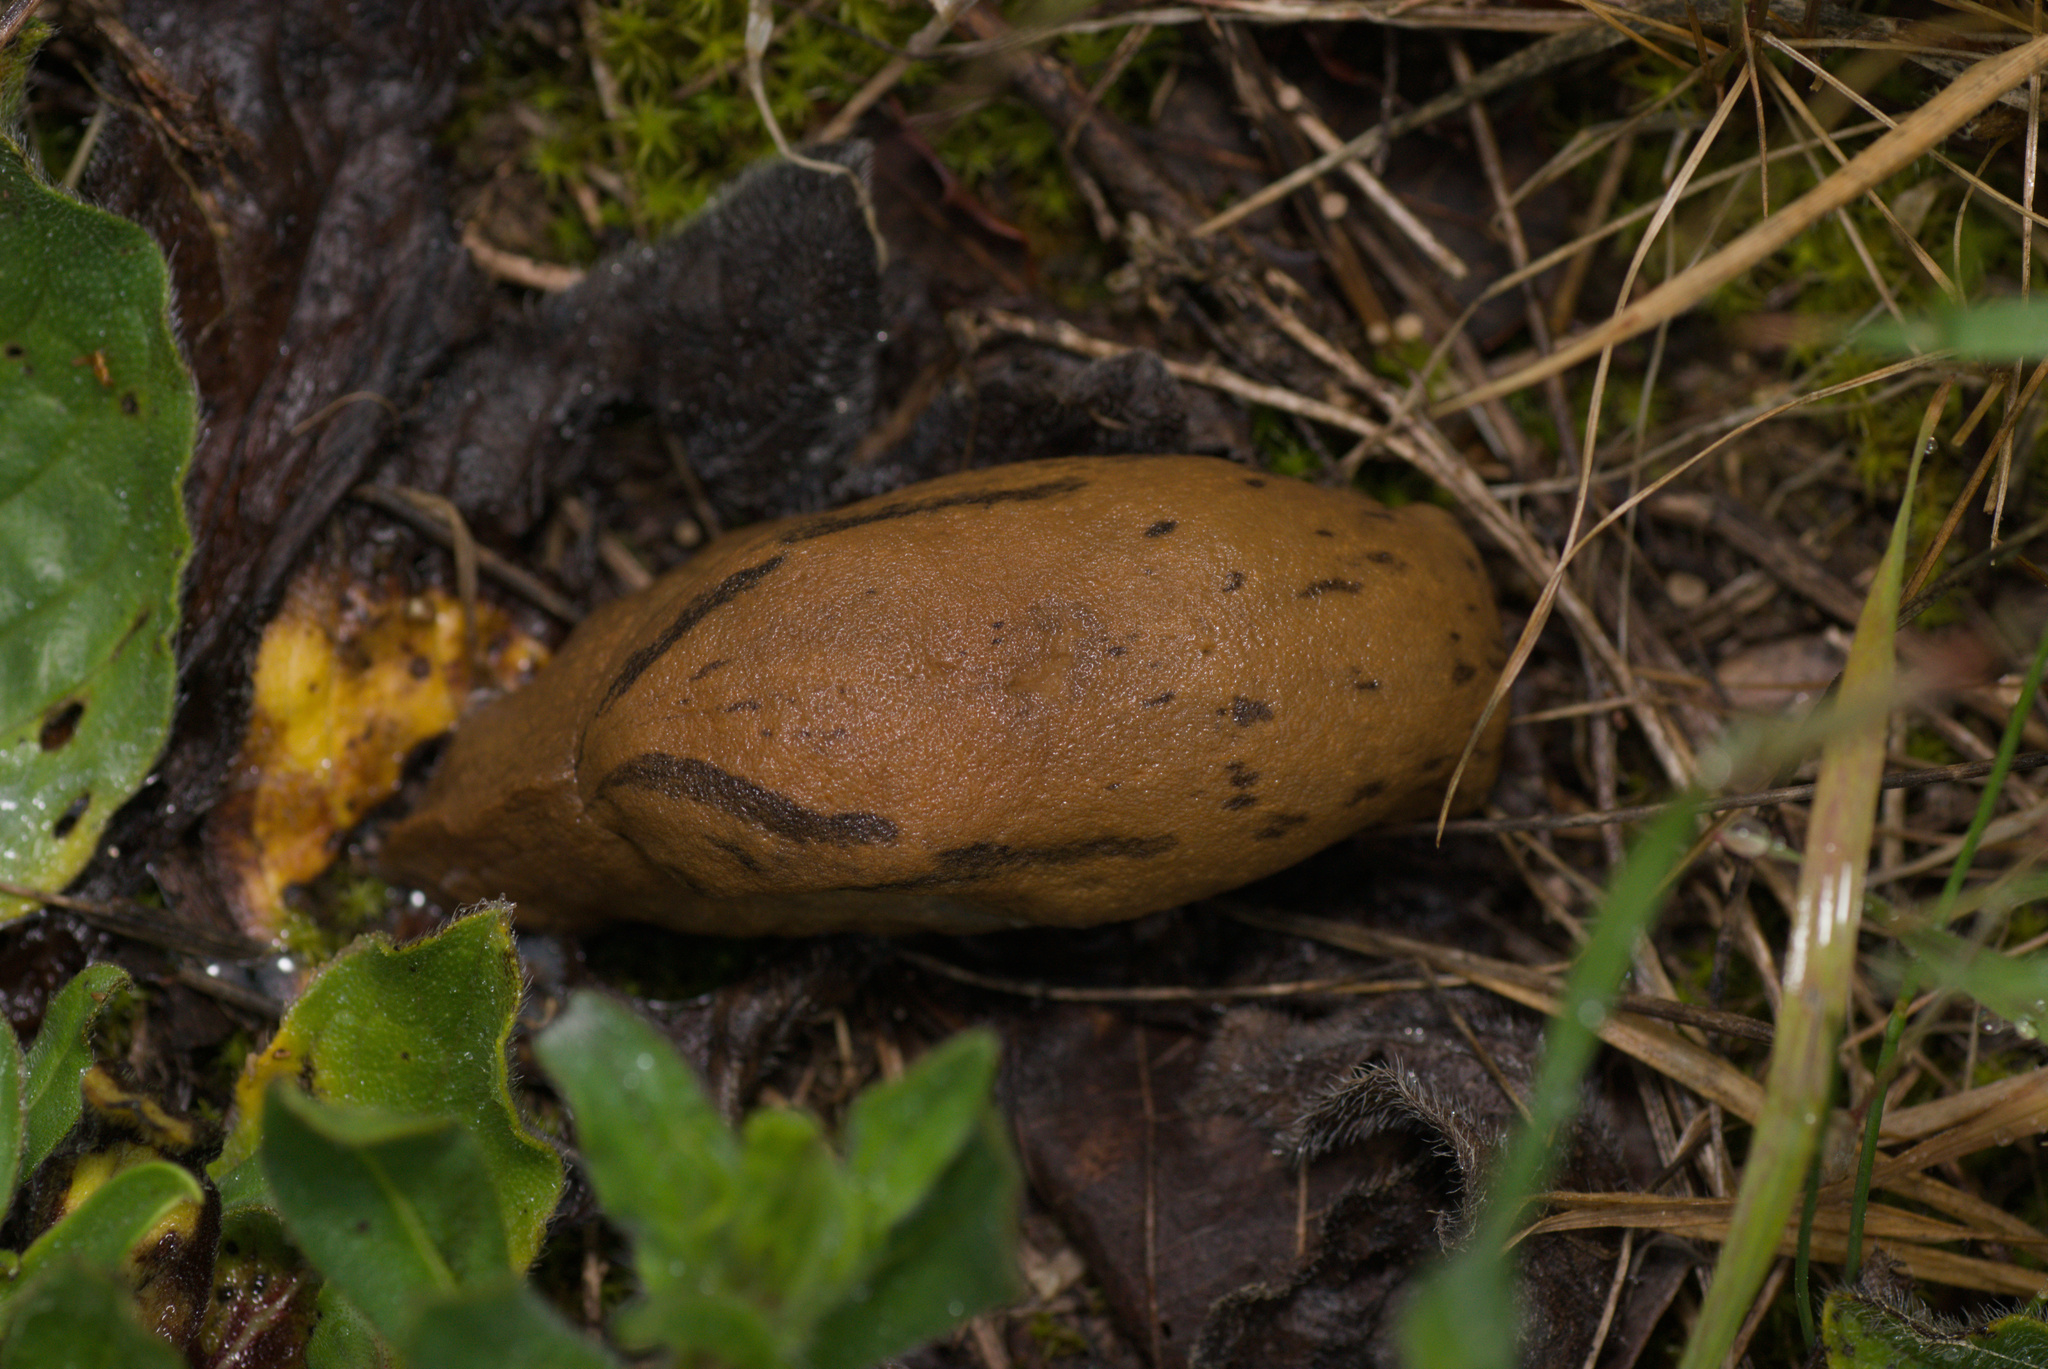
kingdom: Animalia
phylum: Mollusca
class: Gastropoda
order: Stylommatophora
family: Parmacellidae
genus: Drusia
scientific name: Drusia valenciennii
